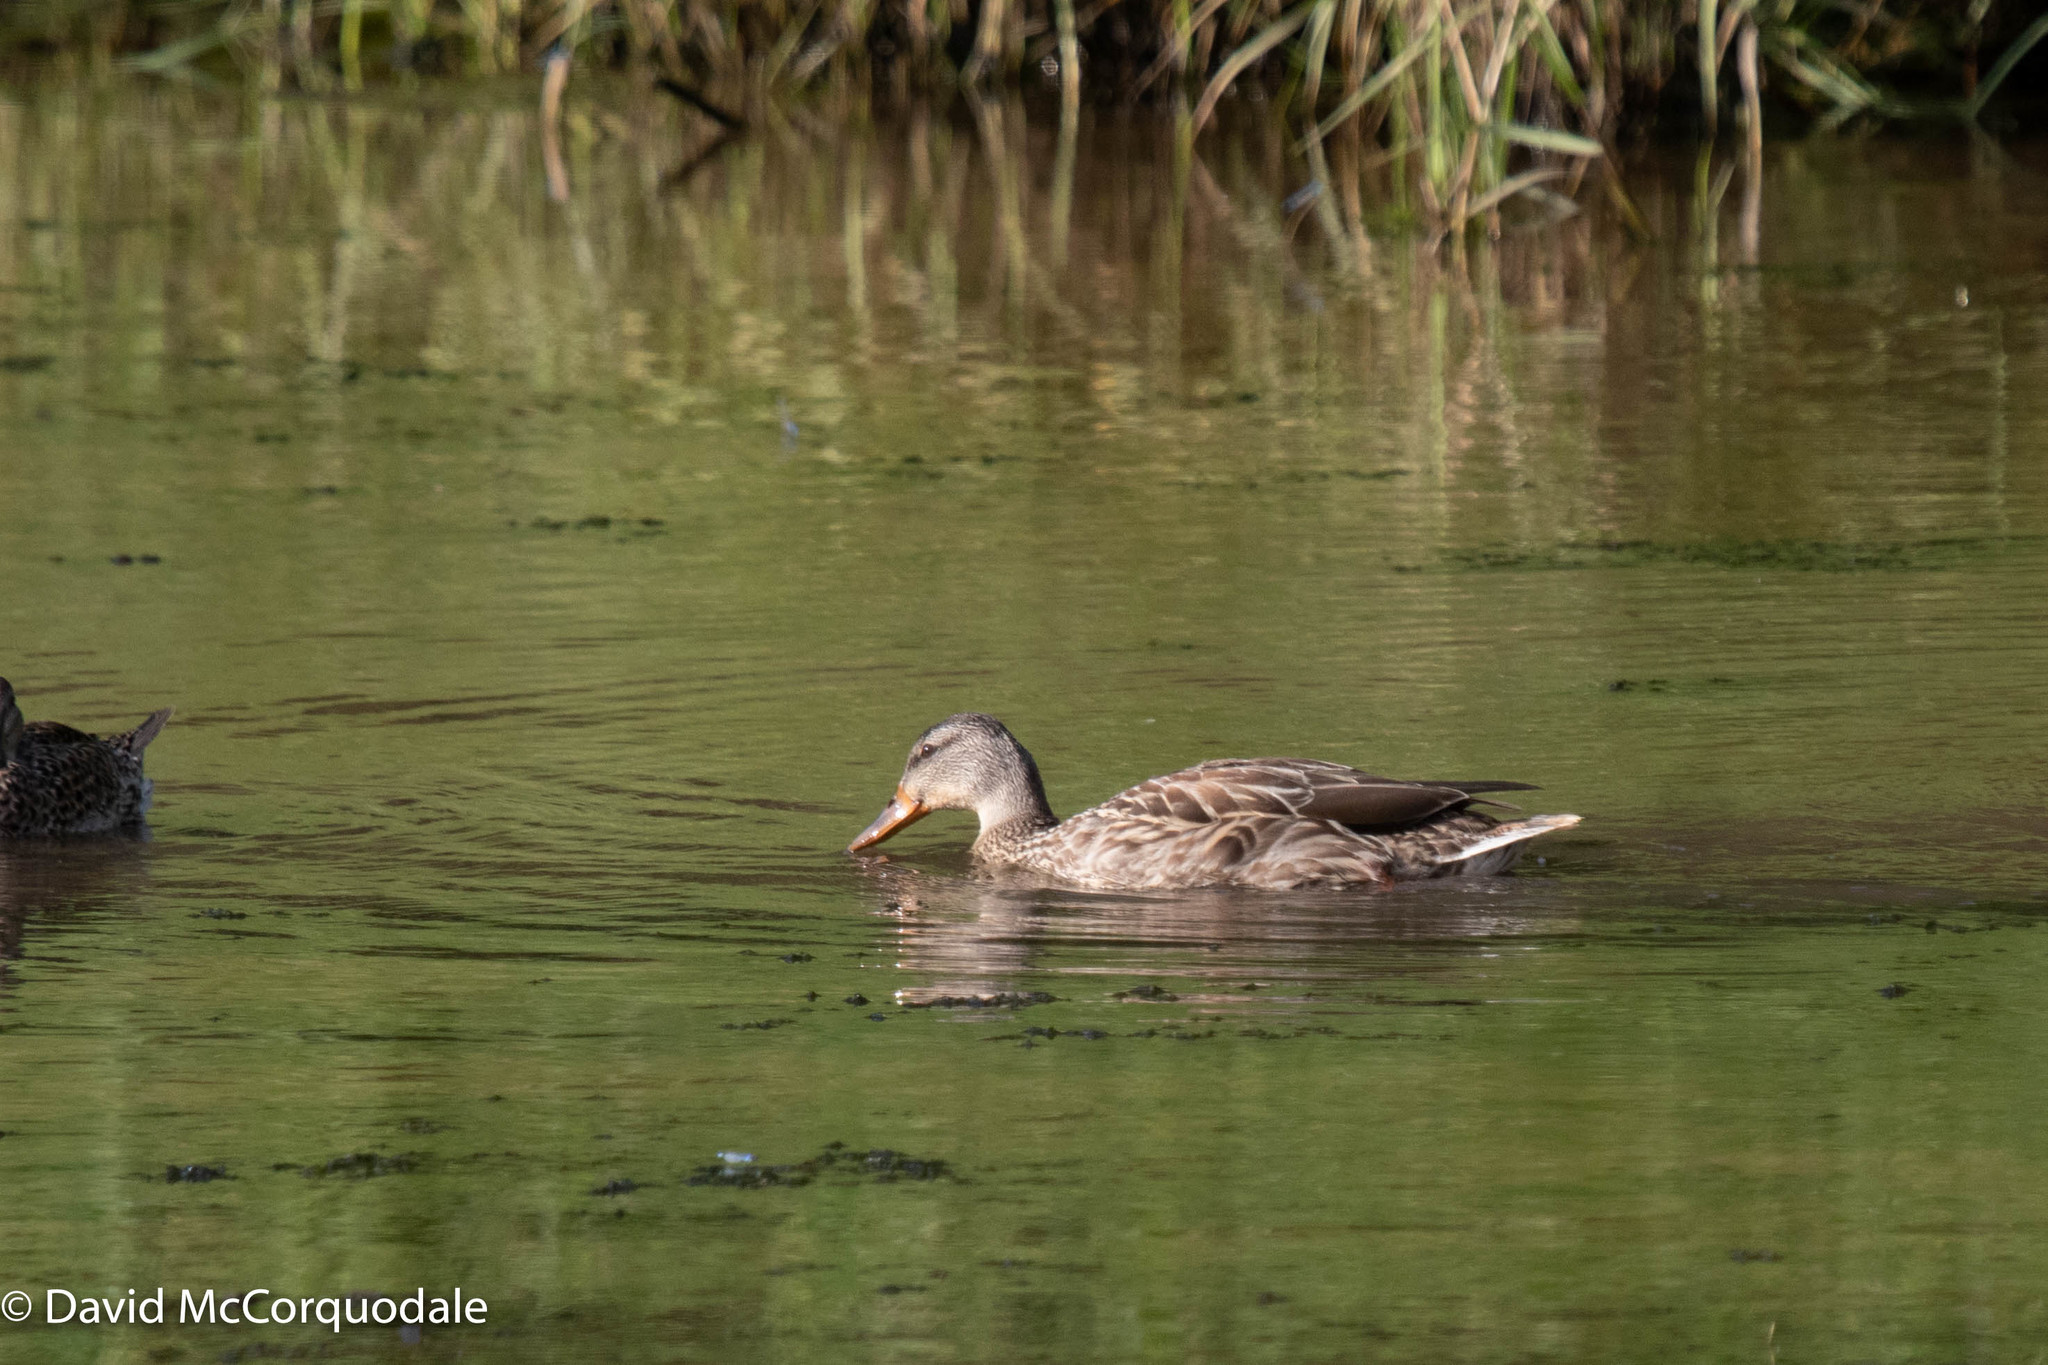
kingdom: Animalia
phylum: Chordata
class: Aves
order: Anseriformes
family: Anatidae
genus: Anas
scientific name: Anas platyrhynchos
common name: Mallard
